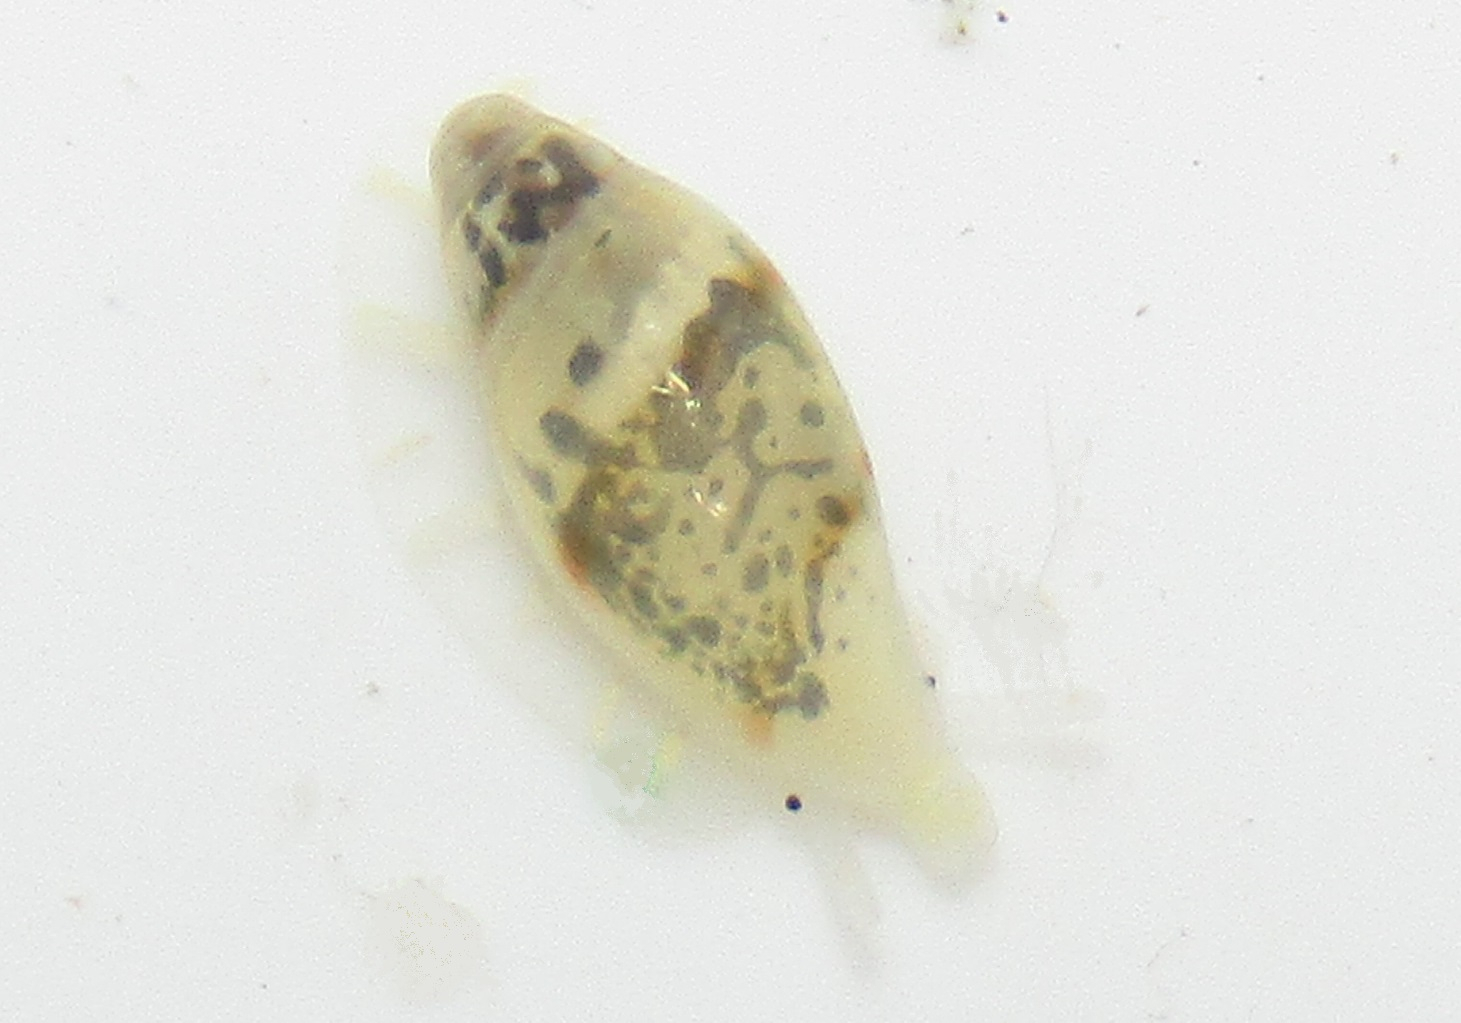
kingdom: Animalia
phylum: Mollusca
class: Gastropoda
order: Neogastropoda
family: Marginellidae
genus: Dentimargo
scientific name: Dentimargo cairoma
